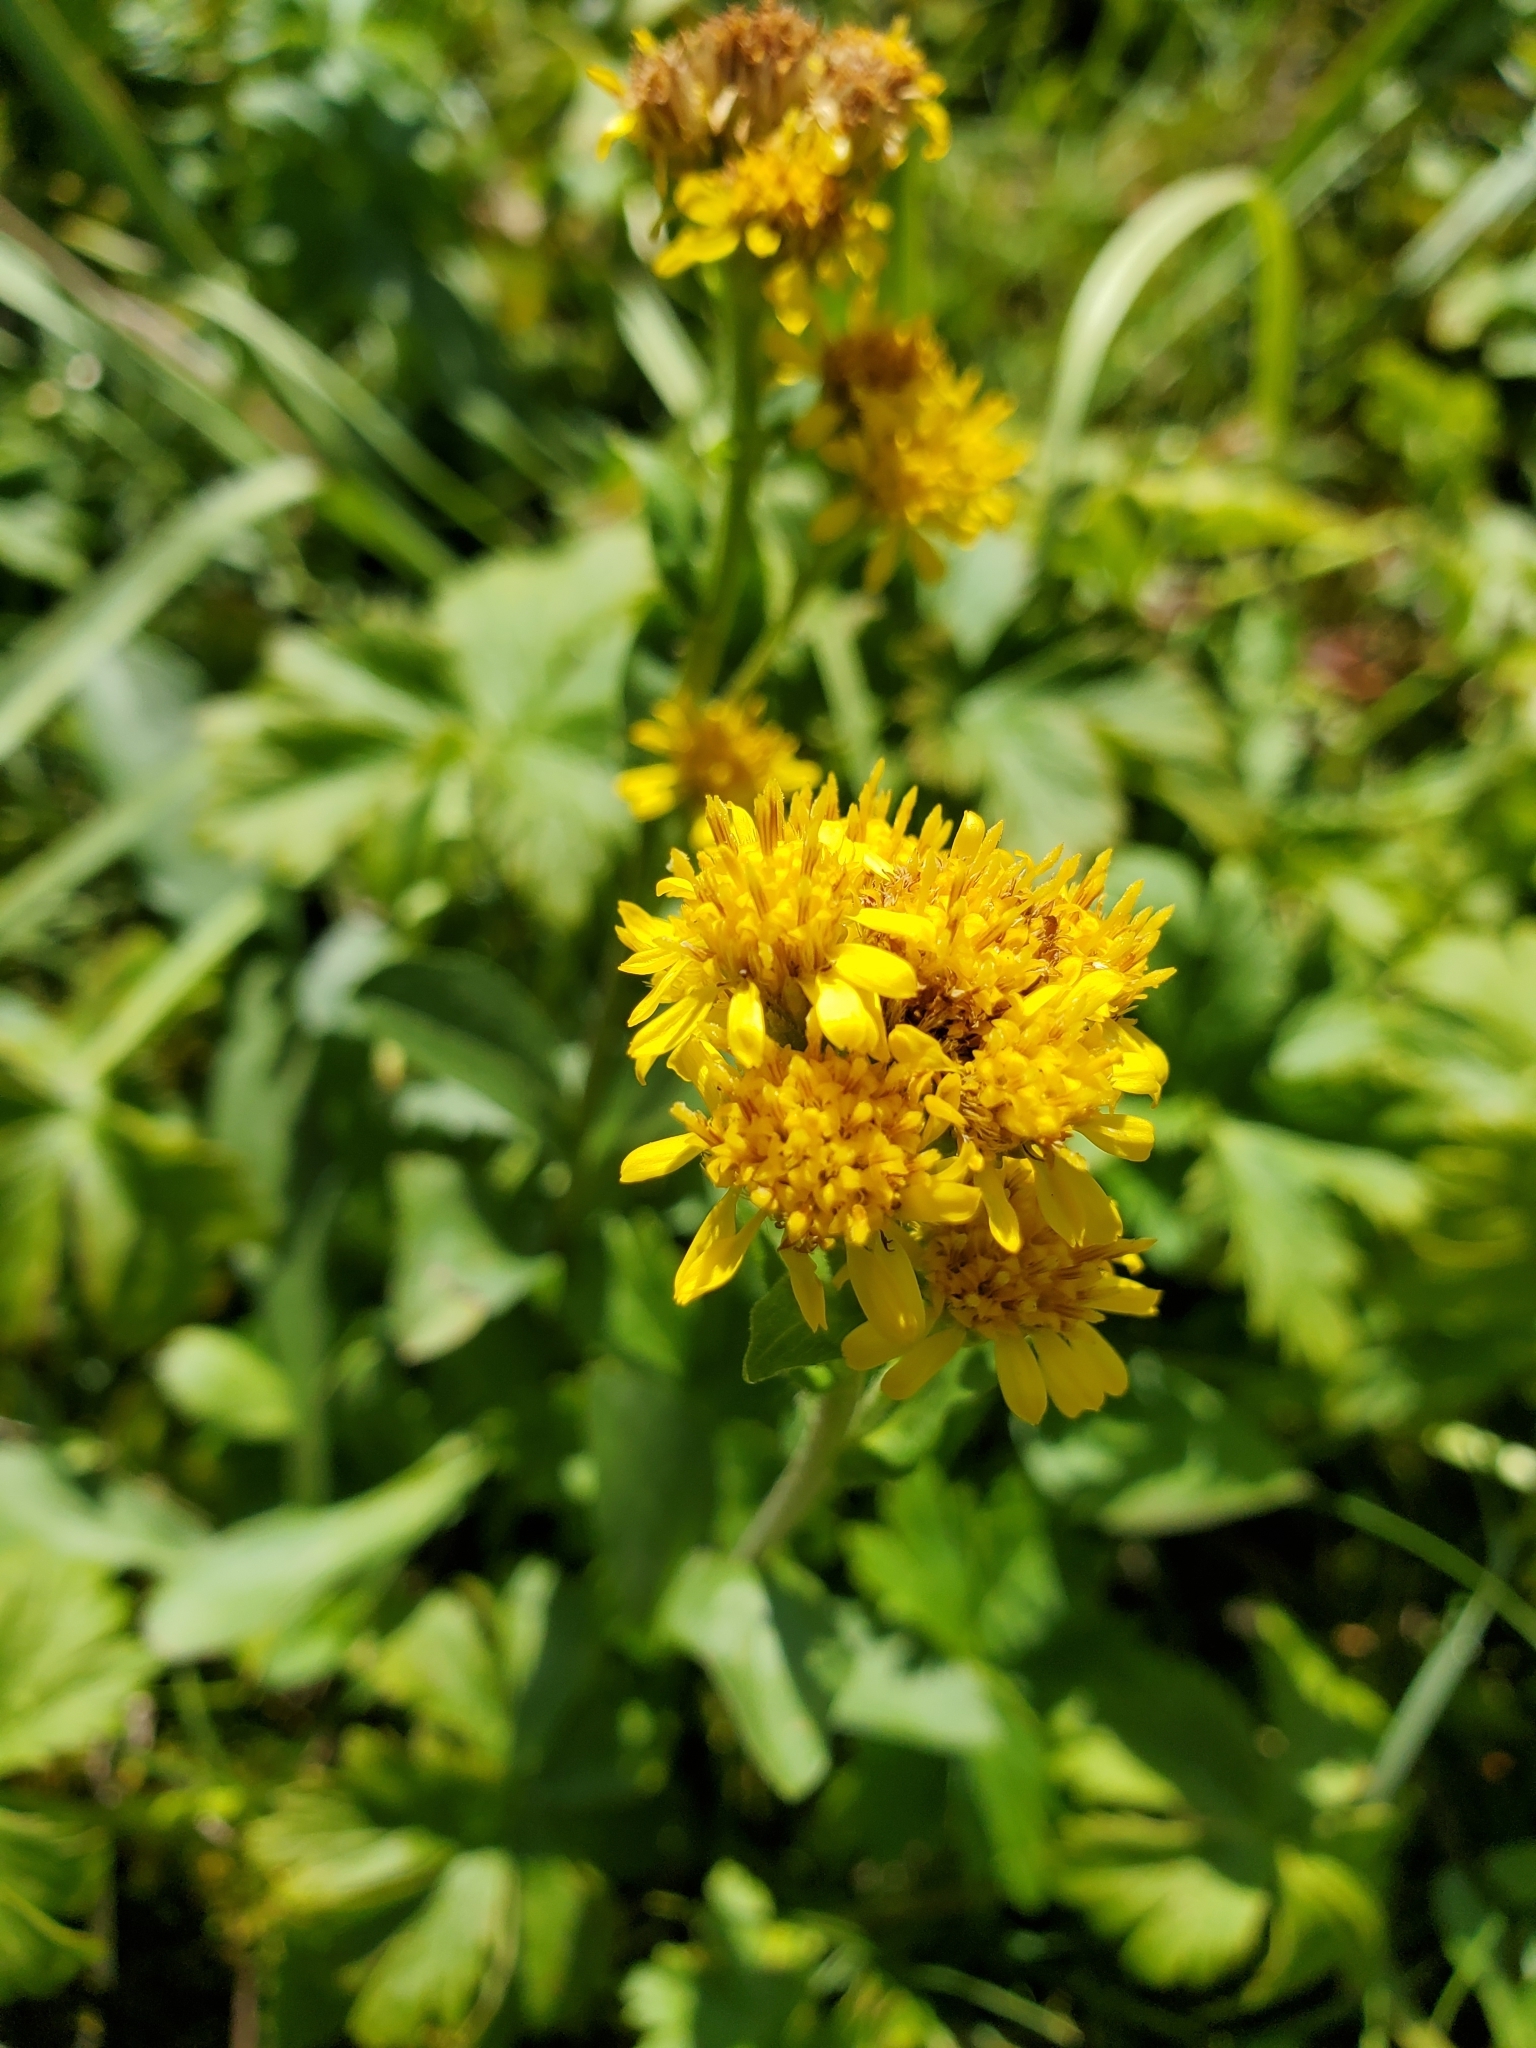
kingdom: Plantae
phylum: Tracheophyta
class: Magnoliopsida
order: Asterales
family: Asteraceae
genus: Solidago
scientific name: Solidago multiradiata
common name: Northern goldenrod
